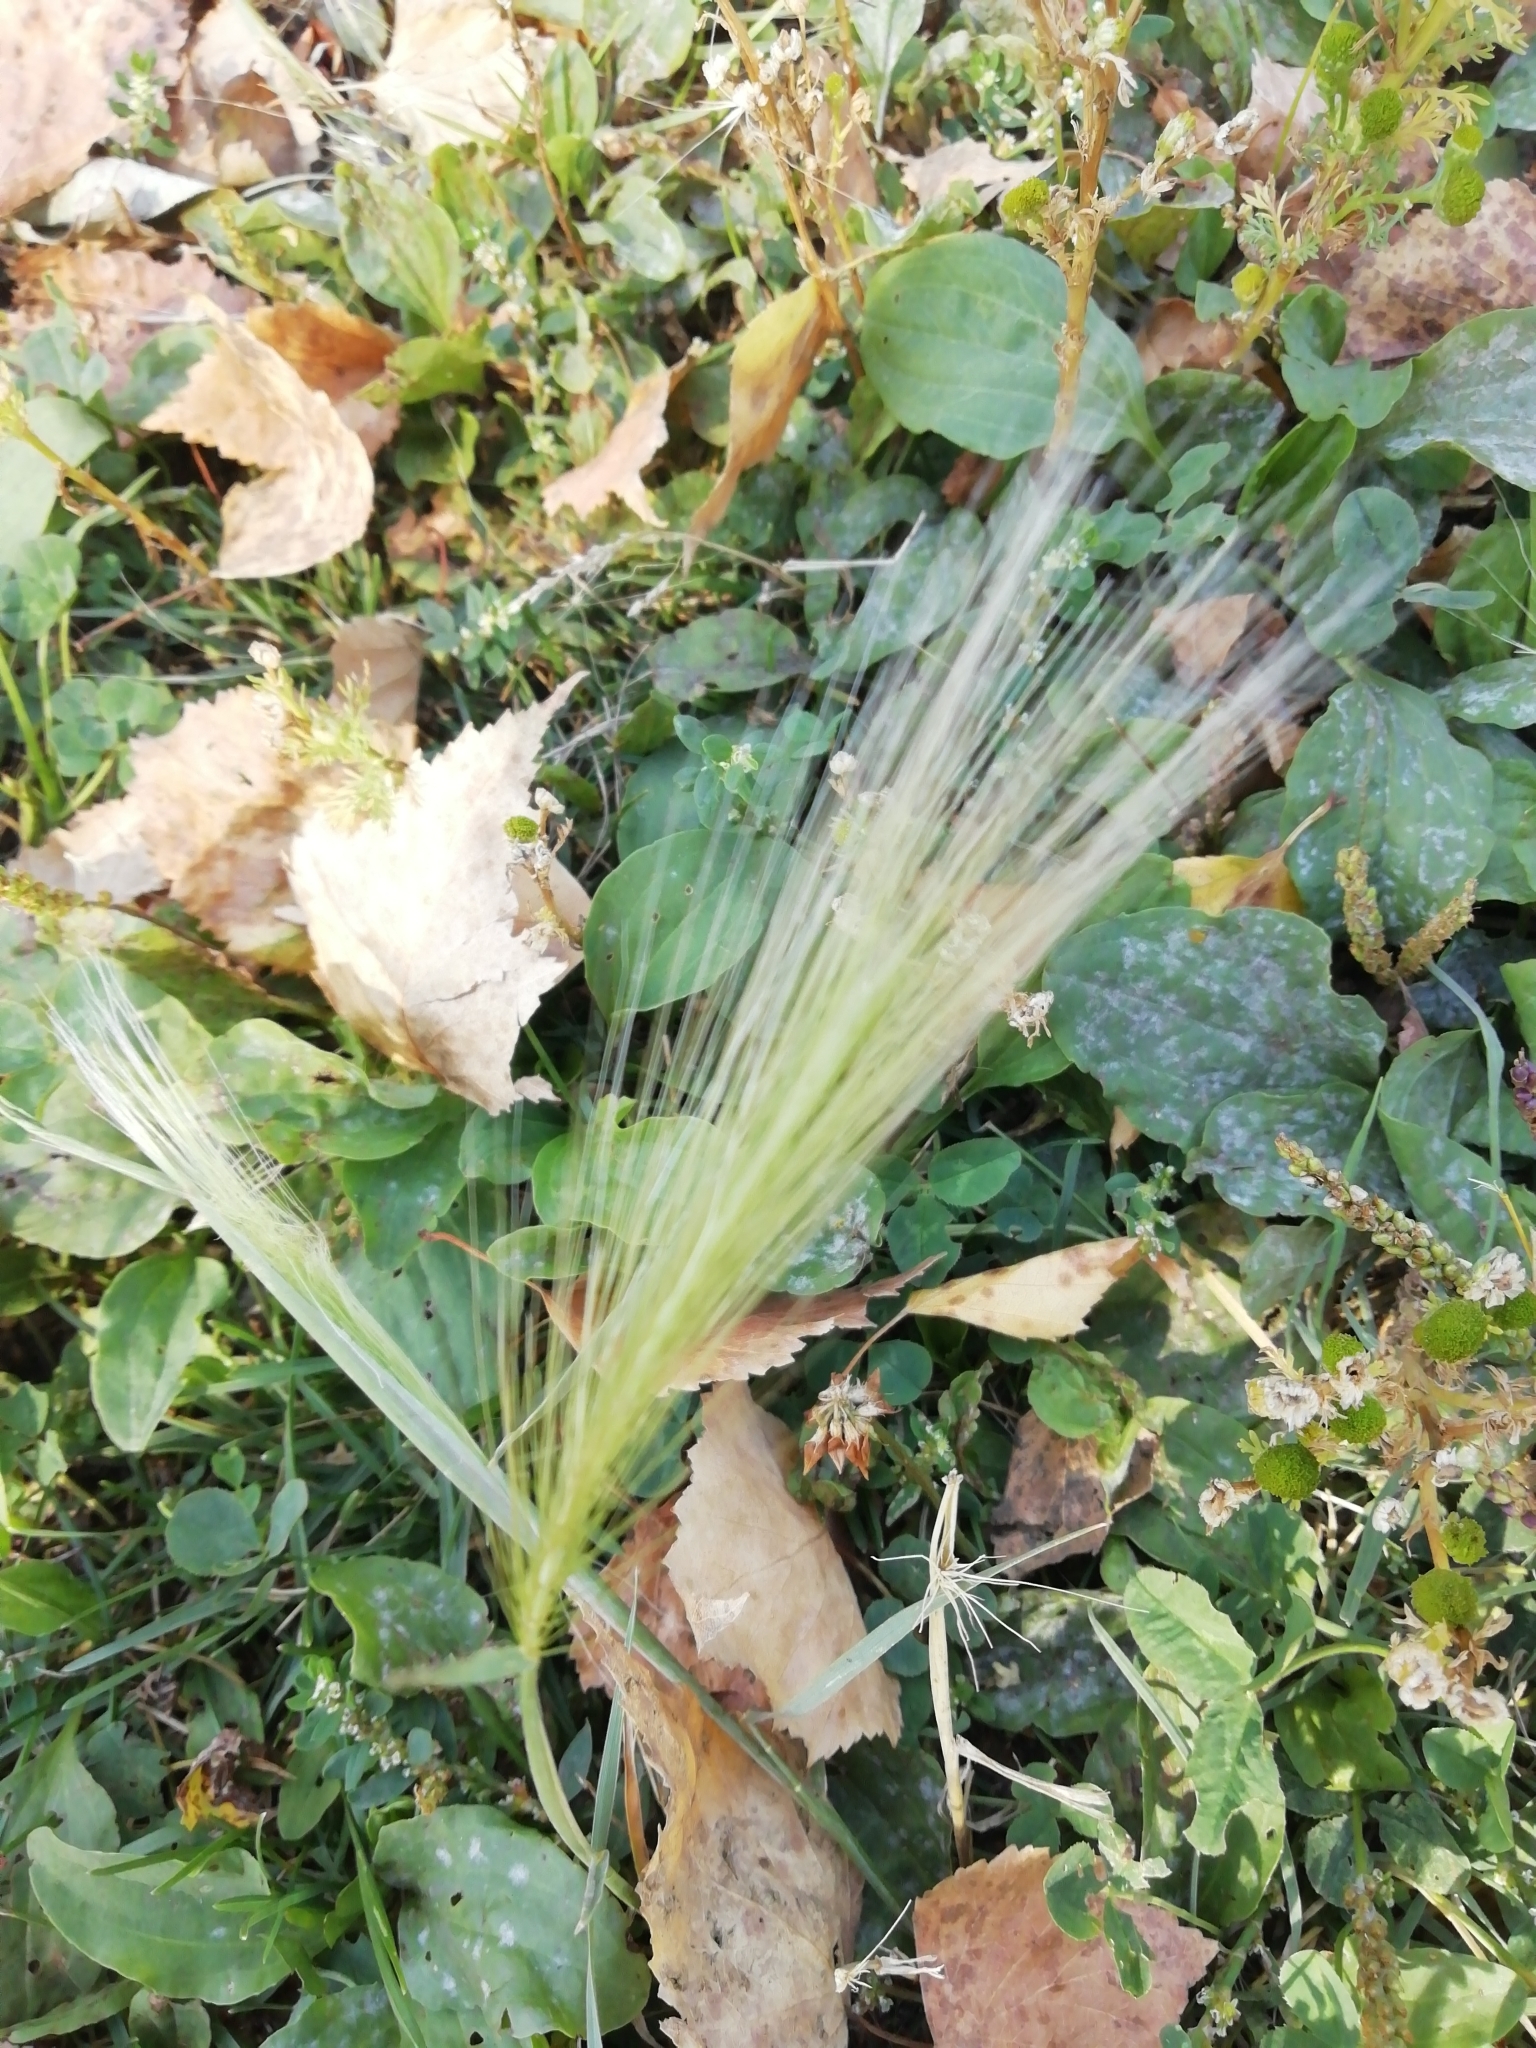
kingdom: Plantae
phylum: Tracheophyta
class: Liliopsida
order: Poales
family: Poaceae
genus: Hordeum
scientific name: Hordeum jubatum
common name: Foxtail barley
